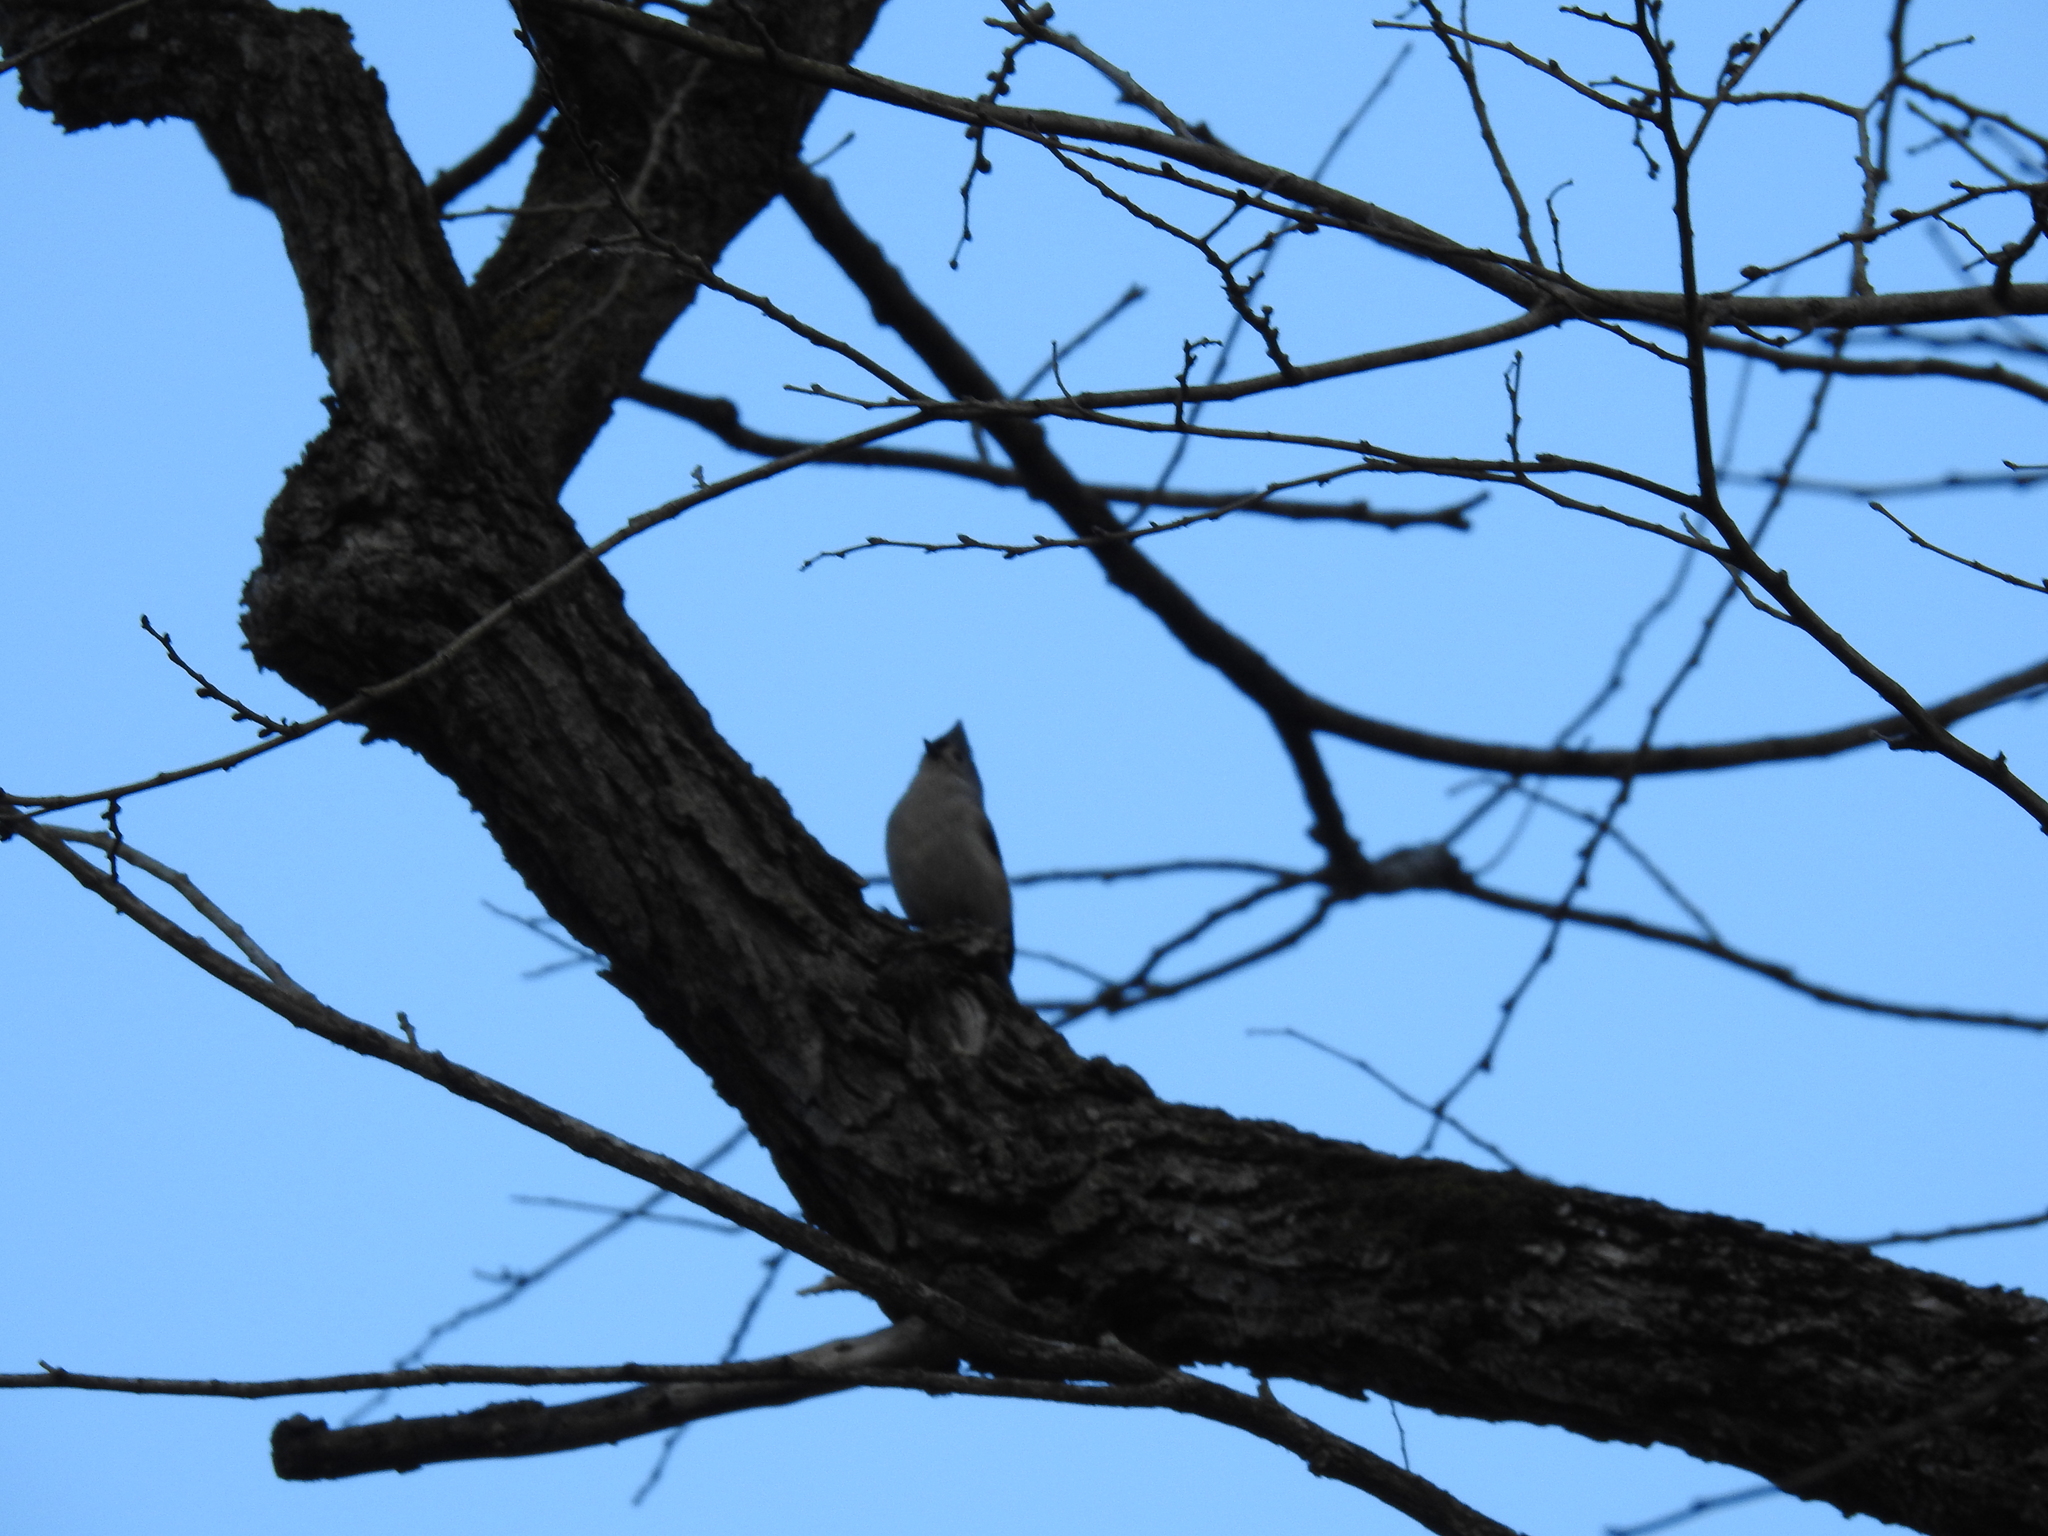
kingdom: Animalia
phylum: Chordata
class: Aves
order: Passeriformes
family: Paridae
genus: Baeolophus
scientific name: Baeolophus bicolor
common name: Tufted titmouse
